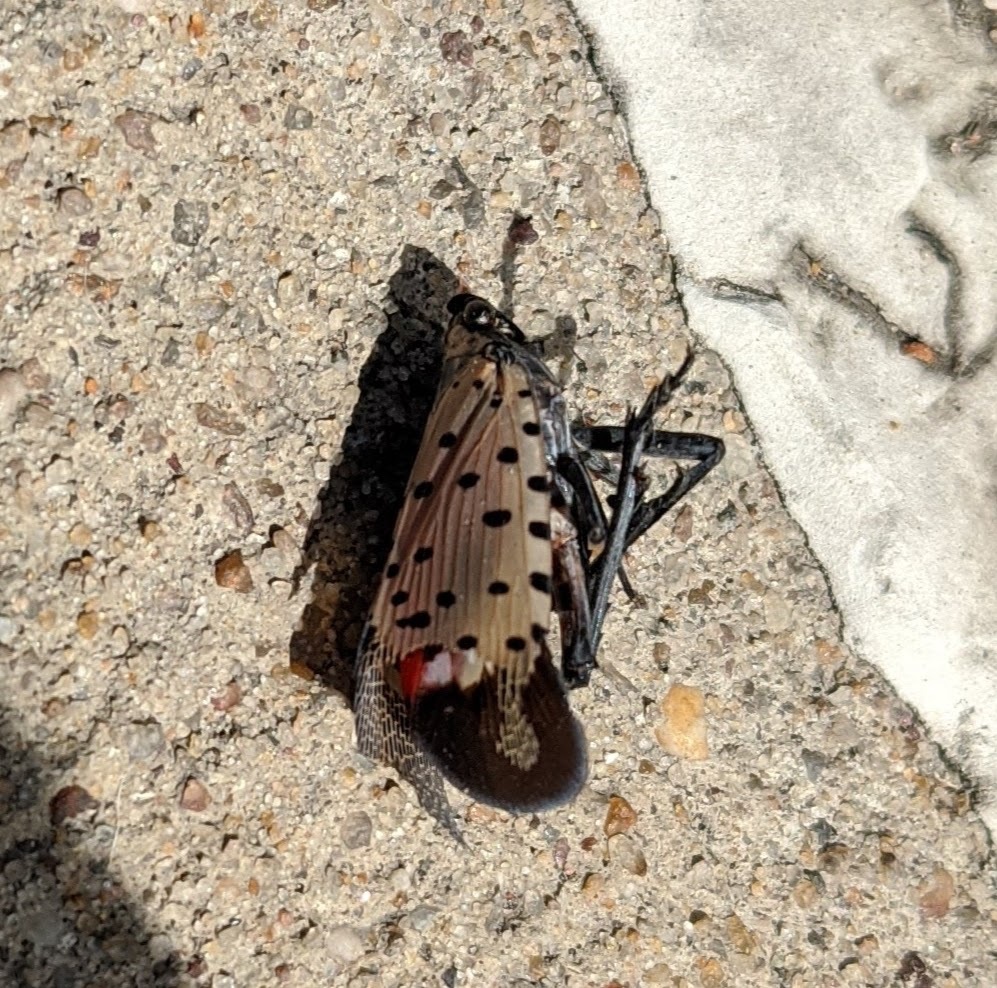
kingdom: Animalia
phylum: Arthropoda
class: Insecta
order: Hemiptera
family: Fulgoridae
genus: Lycorma
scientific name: Lycorma delicatula
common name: Spotted lanternfly
